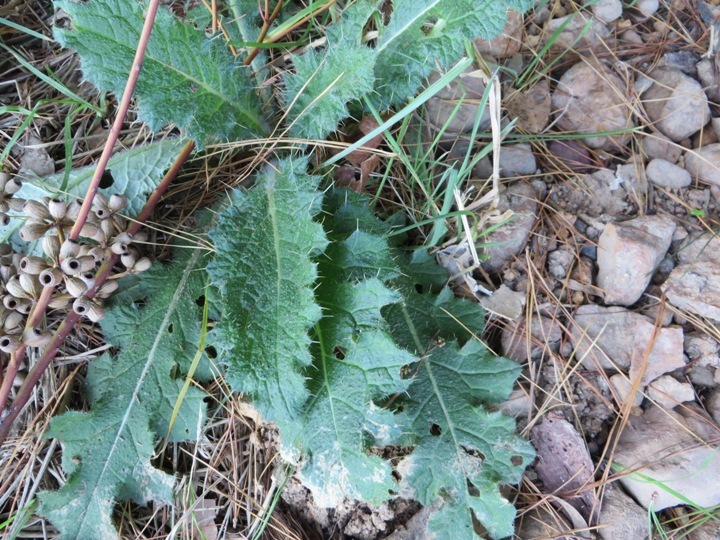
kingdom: Plantae
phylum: Tracheophyta
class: Magnoliopsida
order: Asterales
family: Asteraceae
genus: Cirsium
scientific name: Cirsium vulgare
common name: Bull thistle
